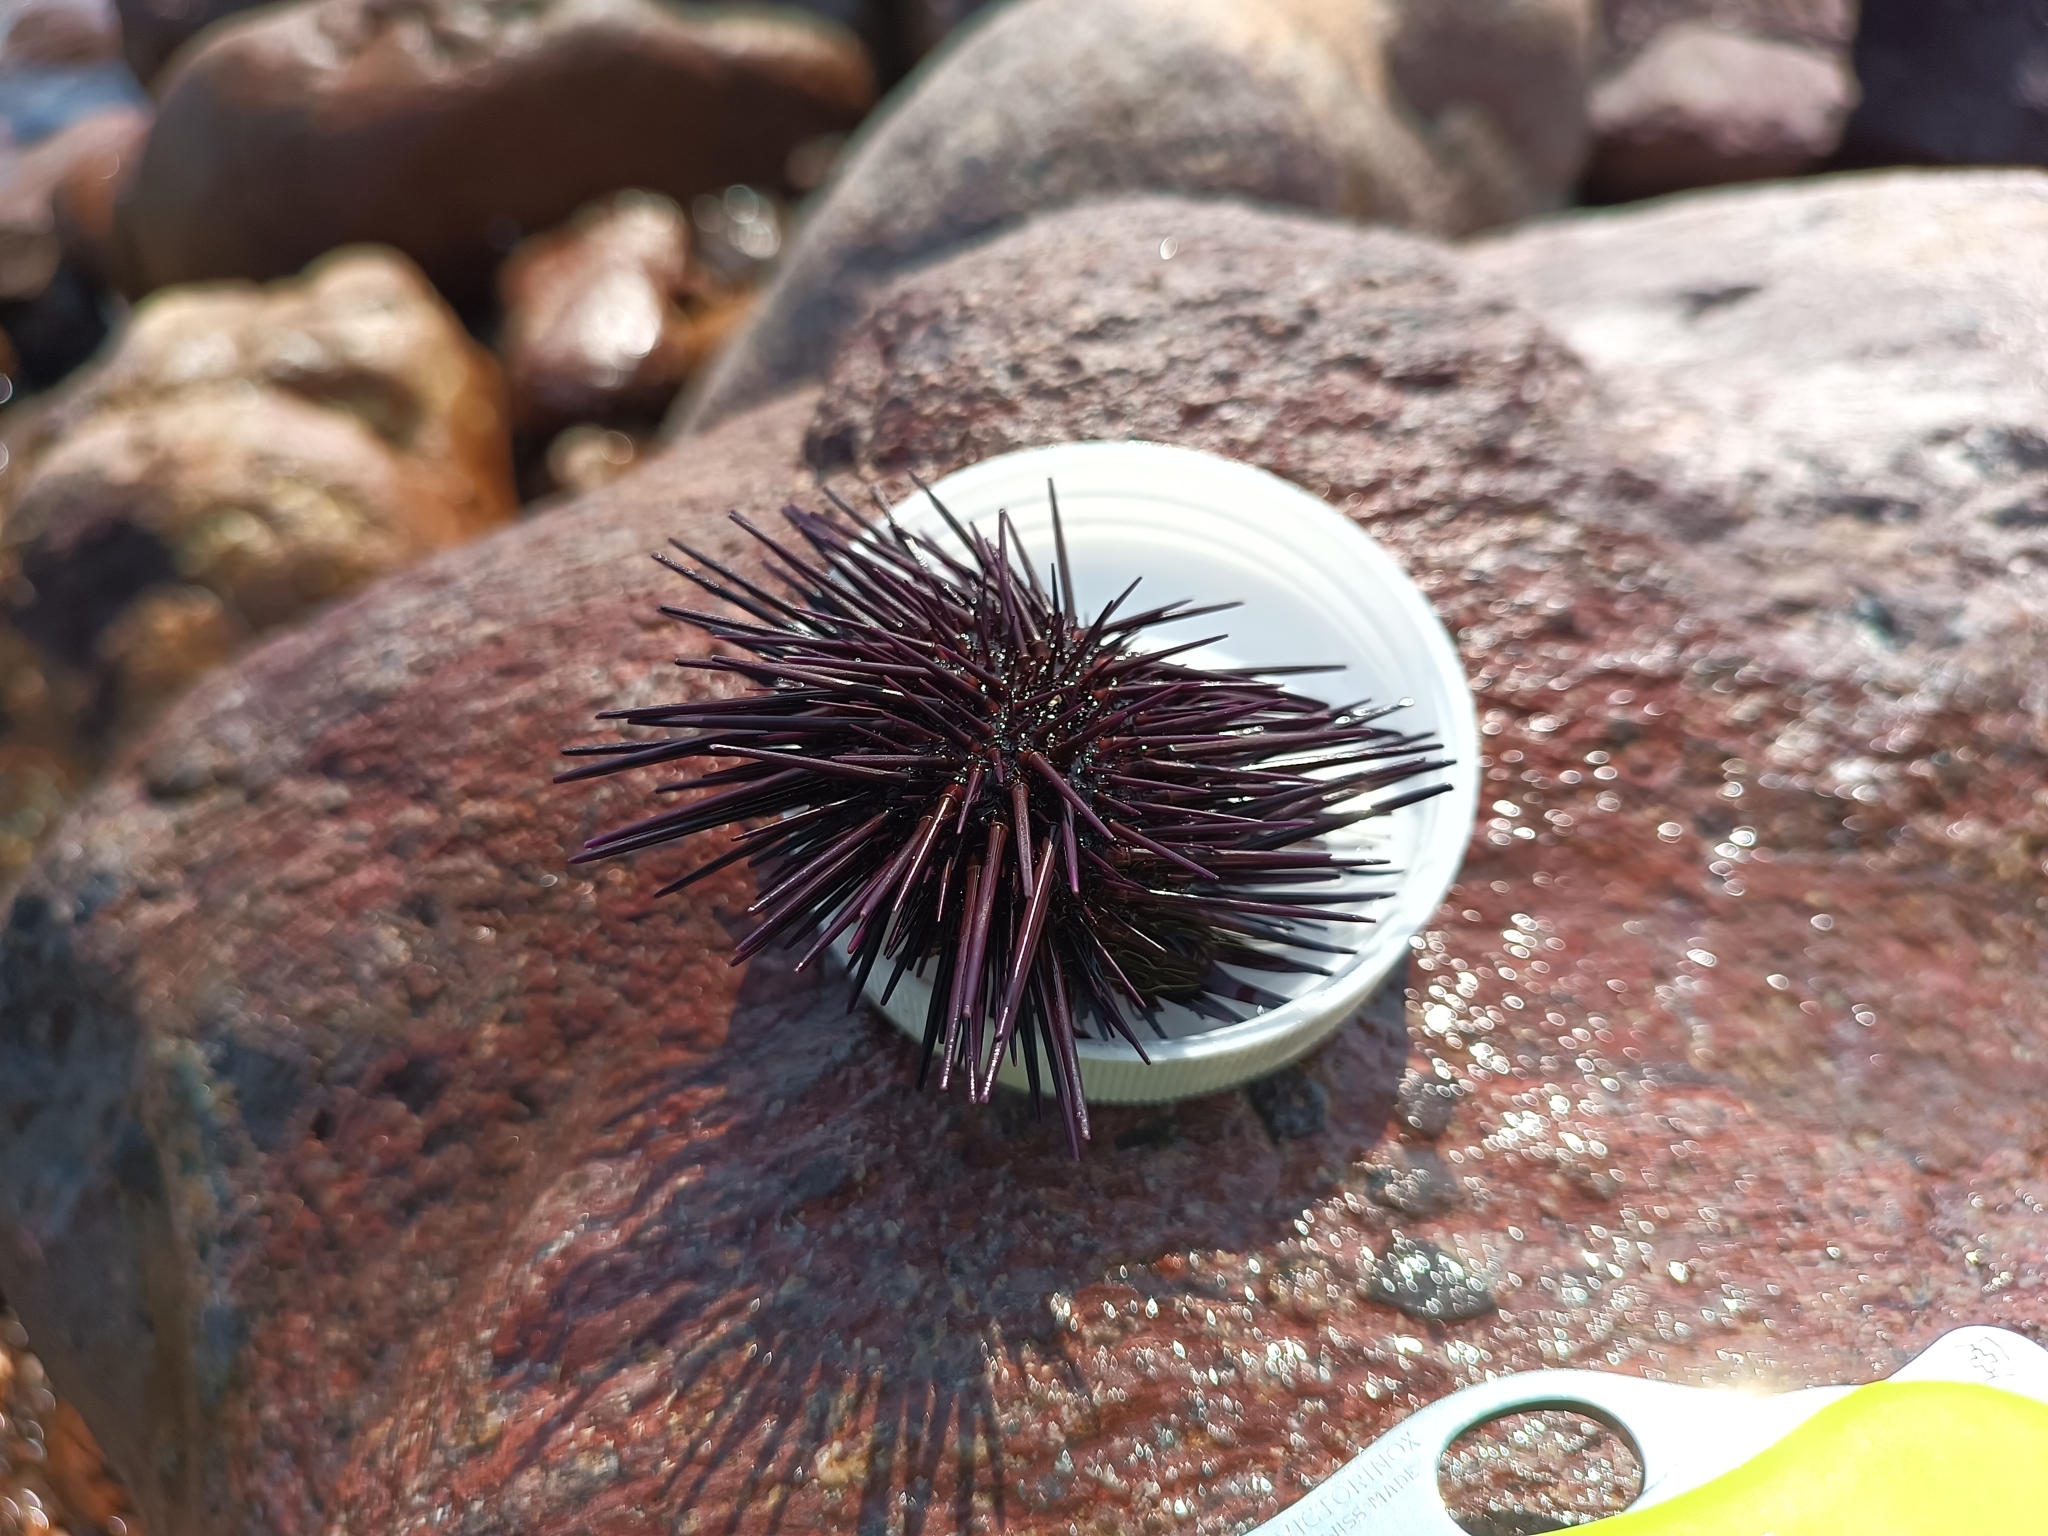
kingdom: Animalia
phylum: Echinodermata
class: Echinoidea
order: Camarodonta
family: Echinometridae
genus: Echinometra
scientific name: Echinometra vanbrunti
